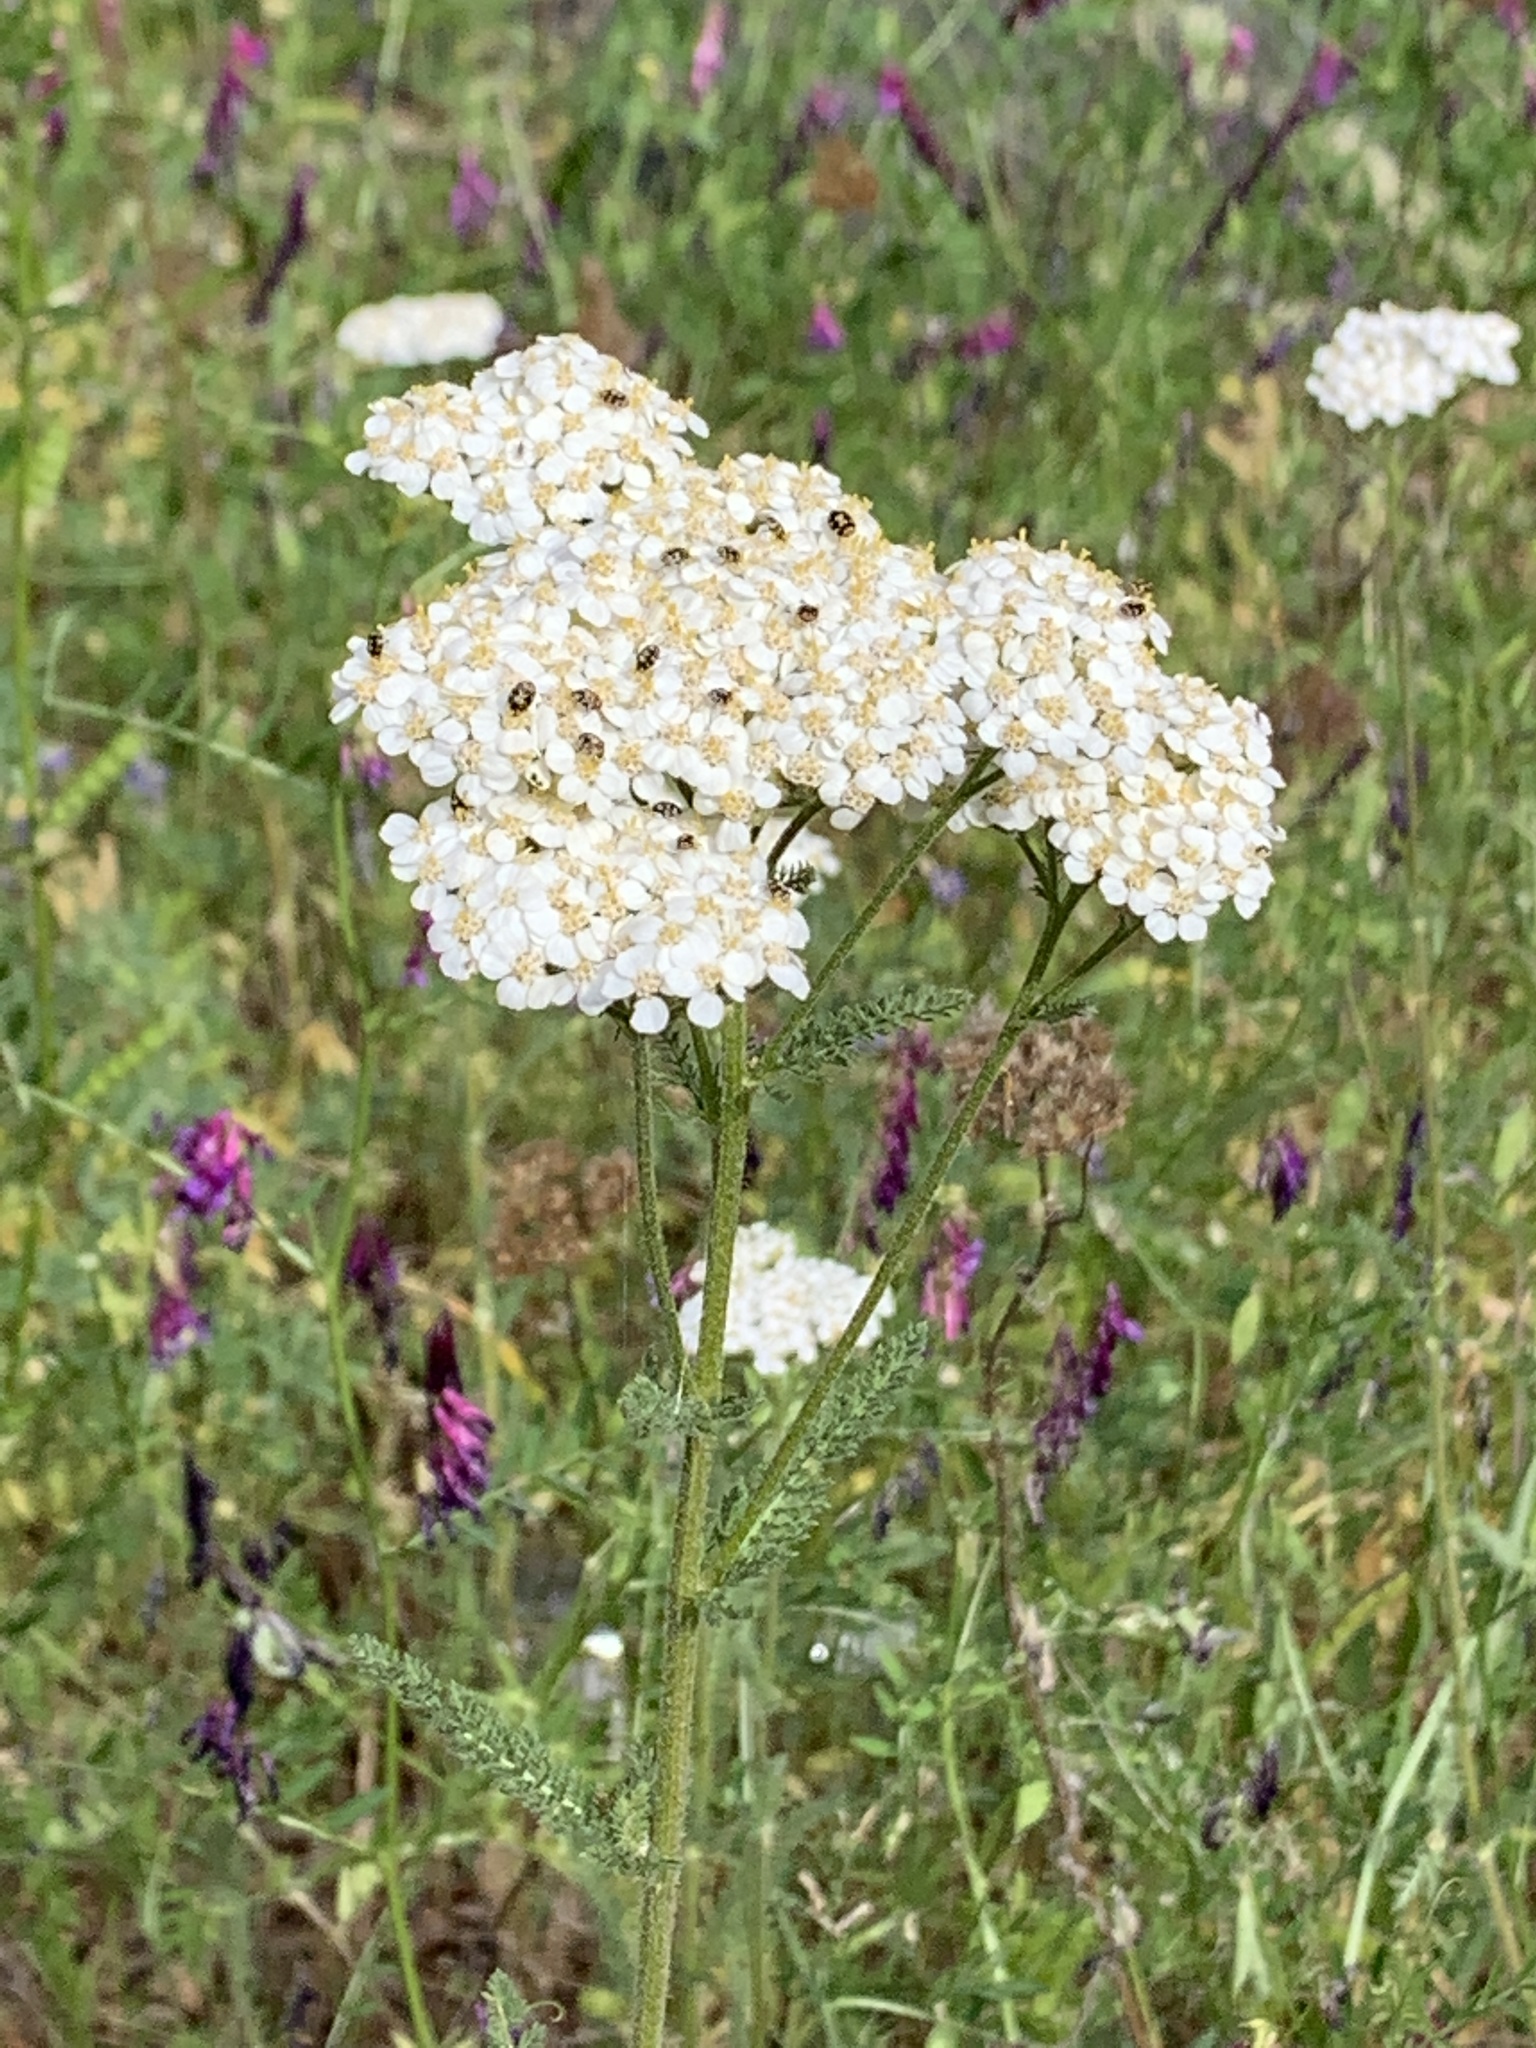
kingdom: Plantae
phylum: Tracheophyta
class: Magnoliopsida
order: Asterales
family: Asteraceae
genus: Achillea
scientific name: Achillea millefolium
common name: Yarrow
